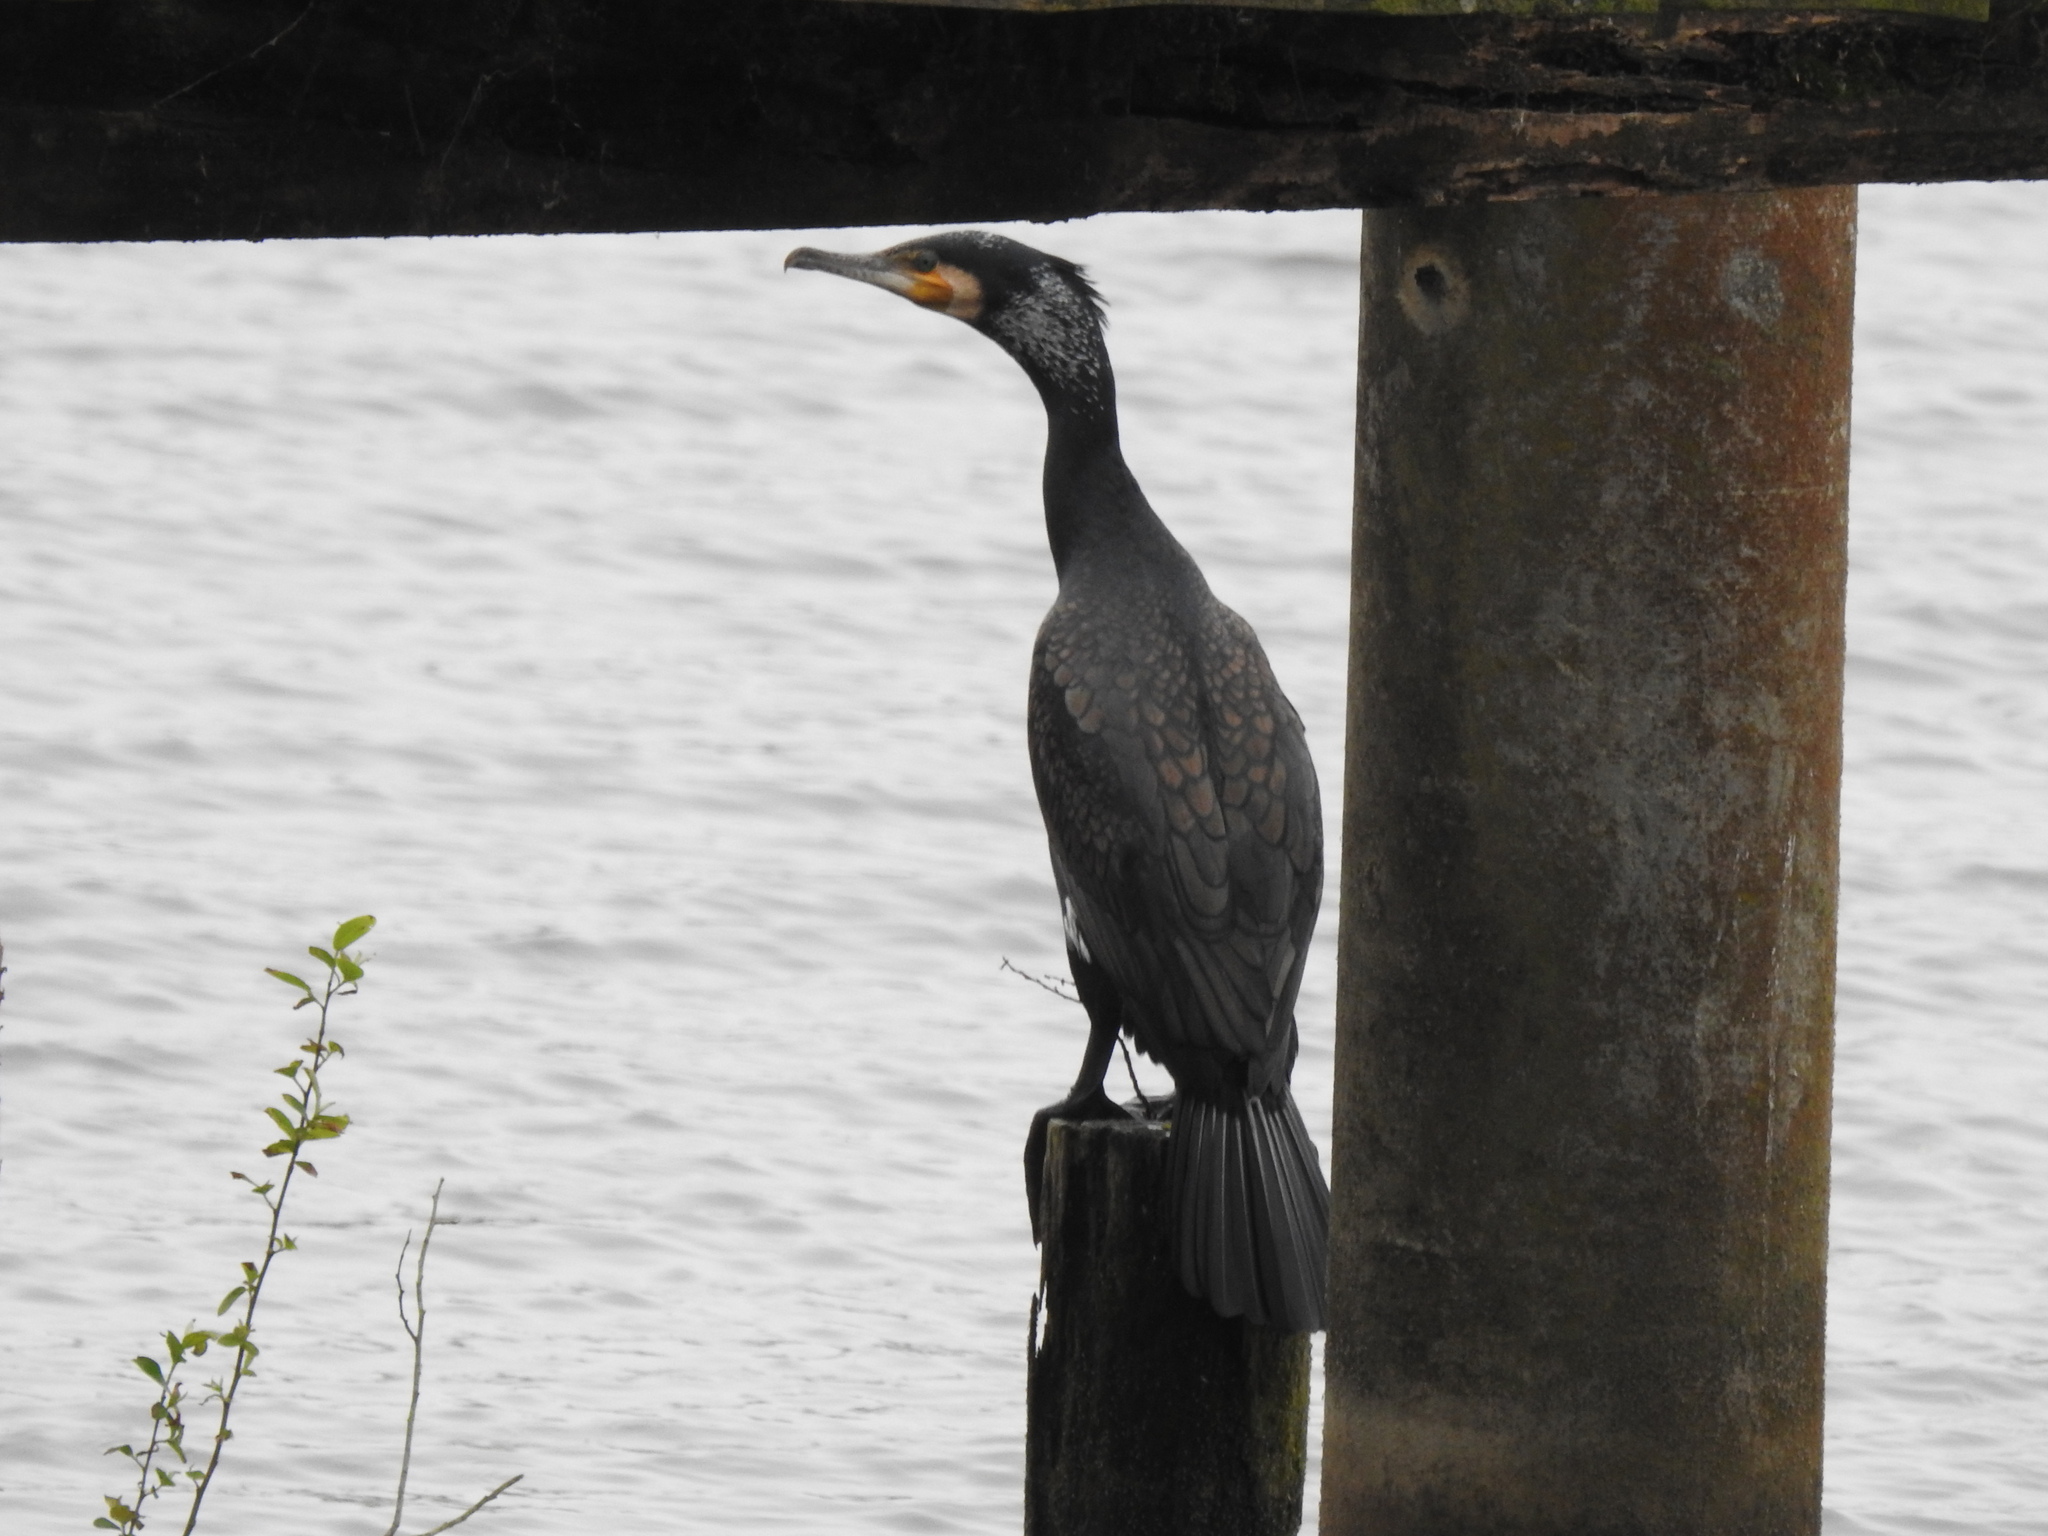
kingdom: Animalia
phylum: Chordata
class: Aves
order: Suliformes
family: Phalacrocoracidae
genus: Phalacrocorax
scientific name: Phalacrocorax carbo
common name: Great cormorant
